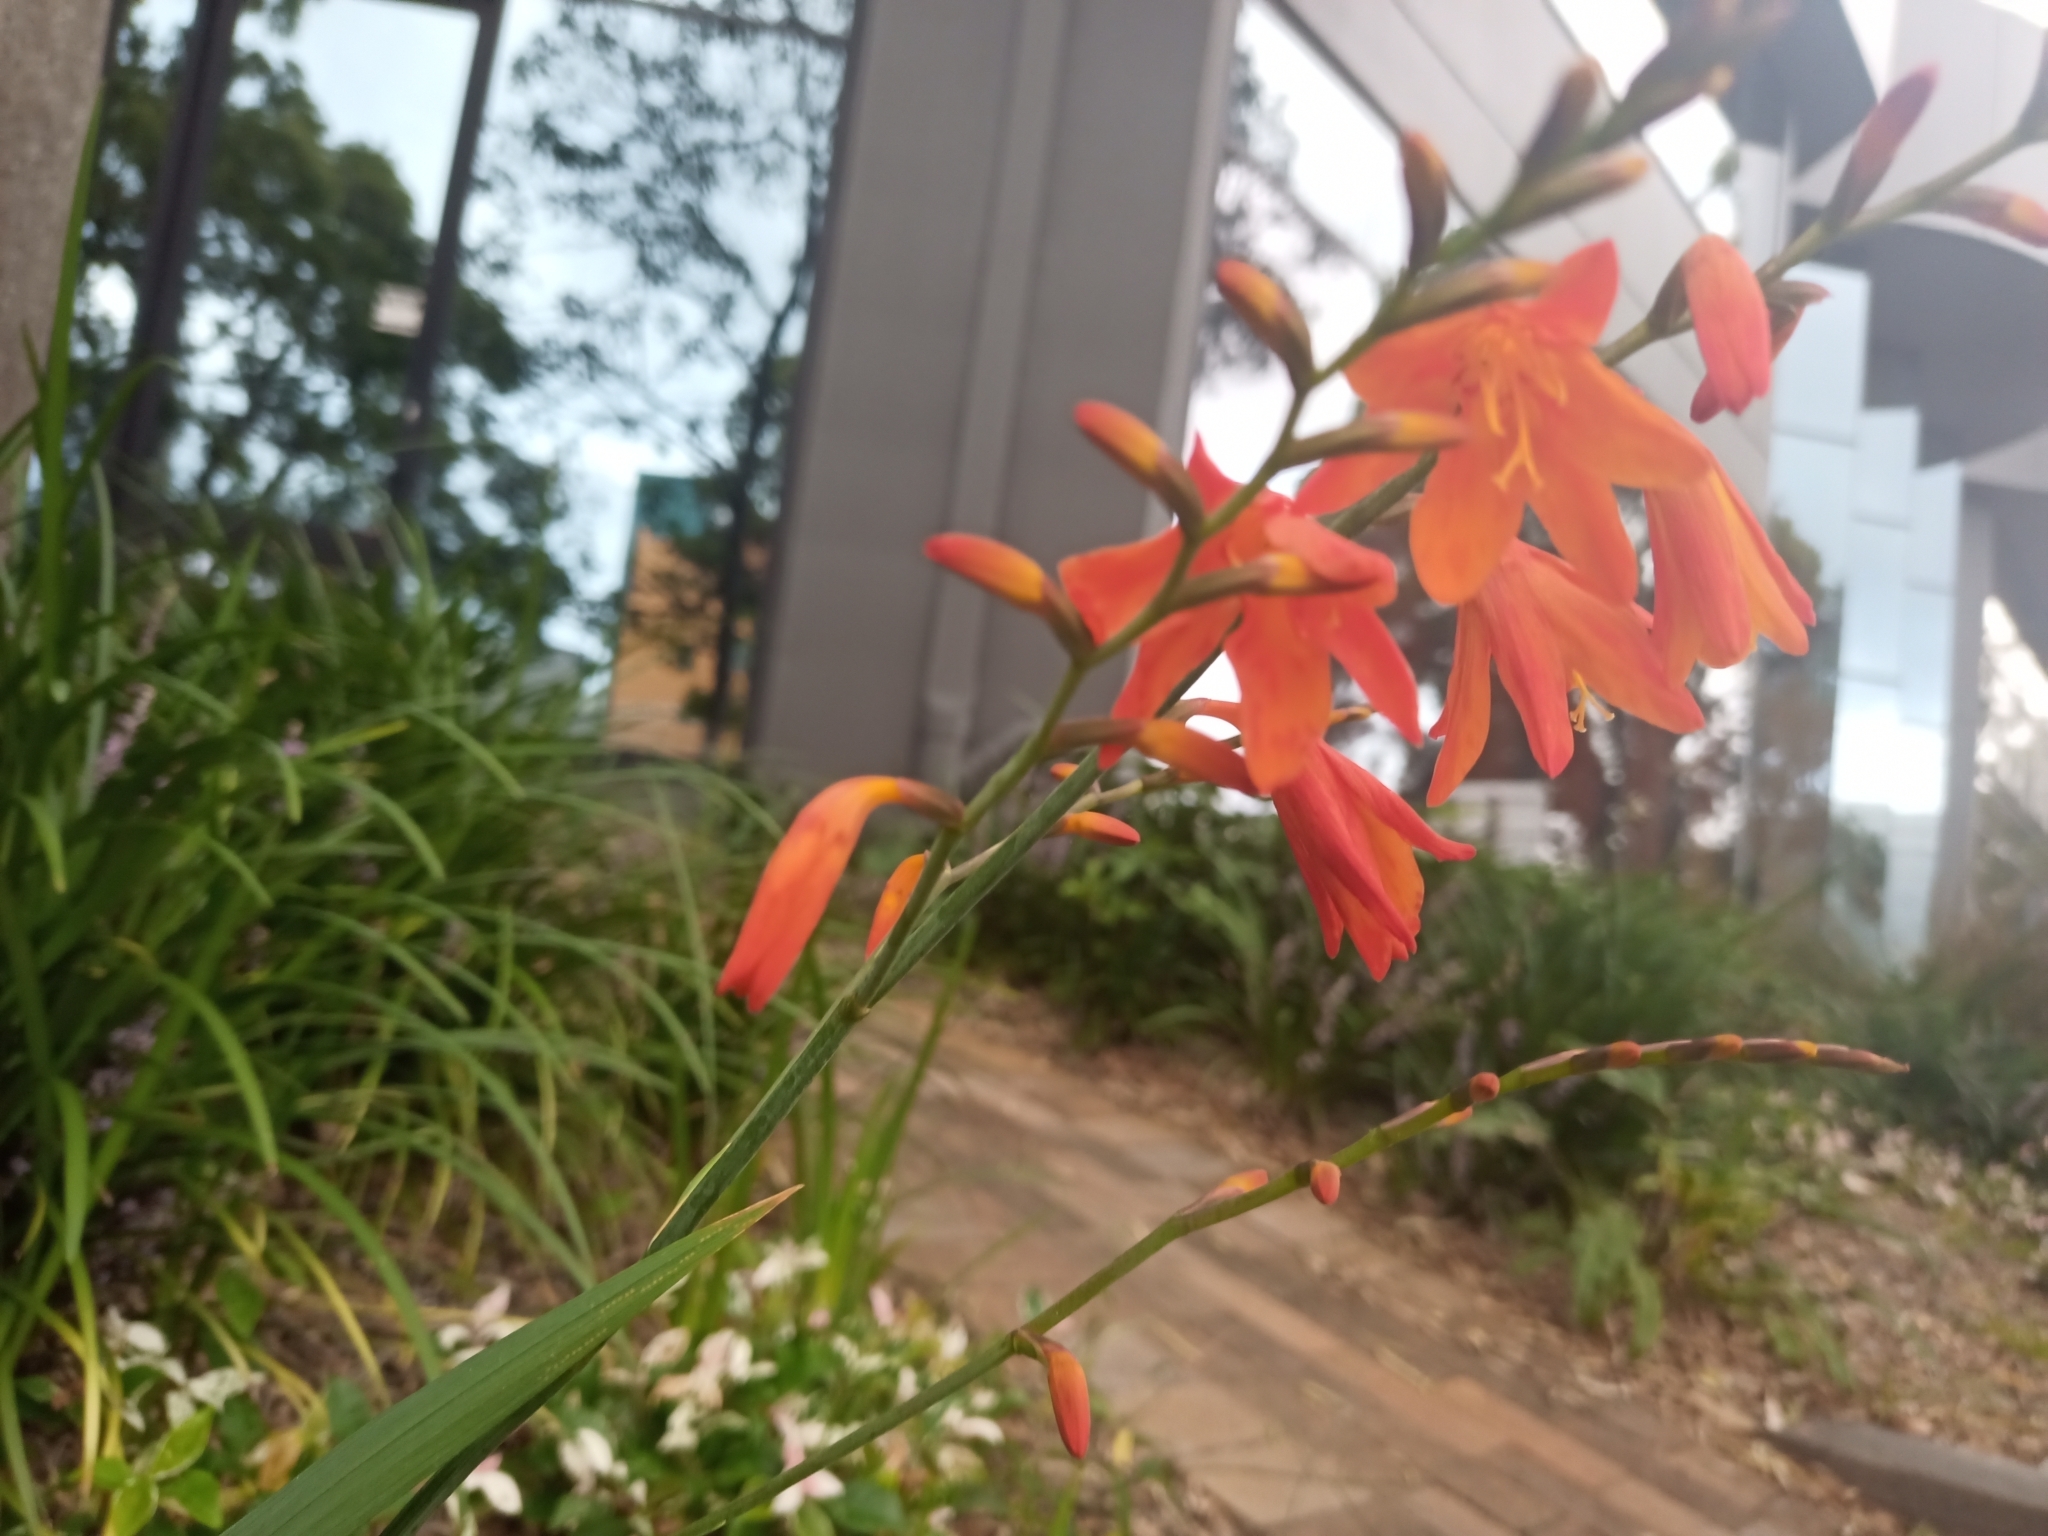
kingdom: Plantae
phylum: Tracheophyta
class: Liliopsida
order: Asparagales
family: Iridaceae
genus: Crocosmia
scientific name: Crocosmia crocosmiiflora
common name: Montbretia
